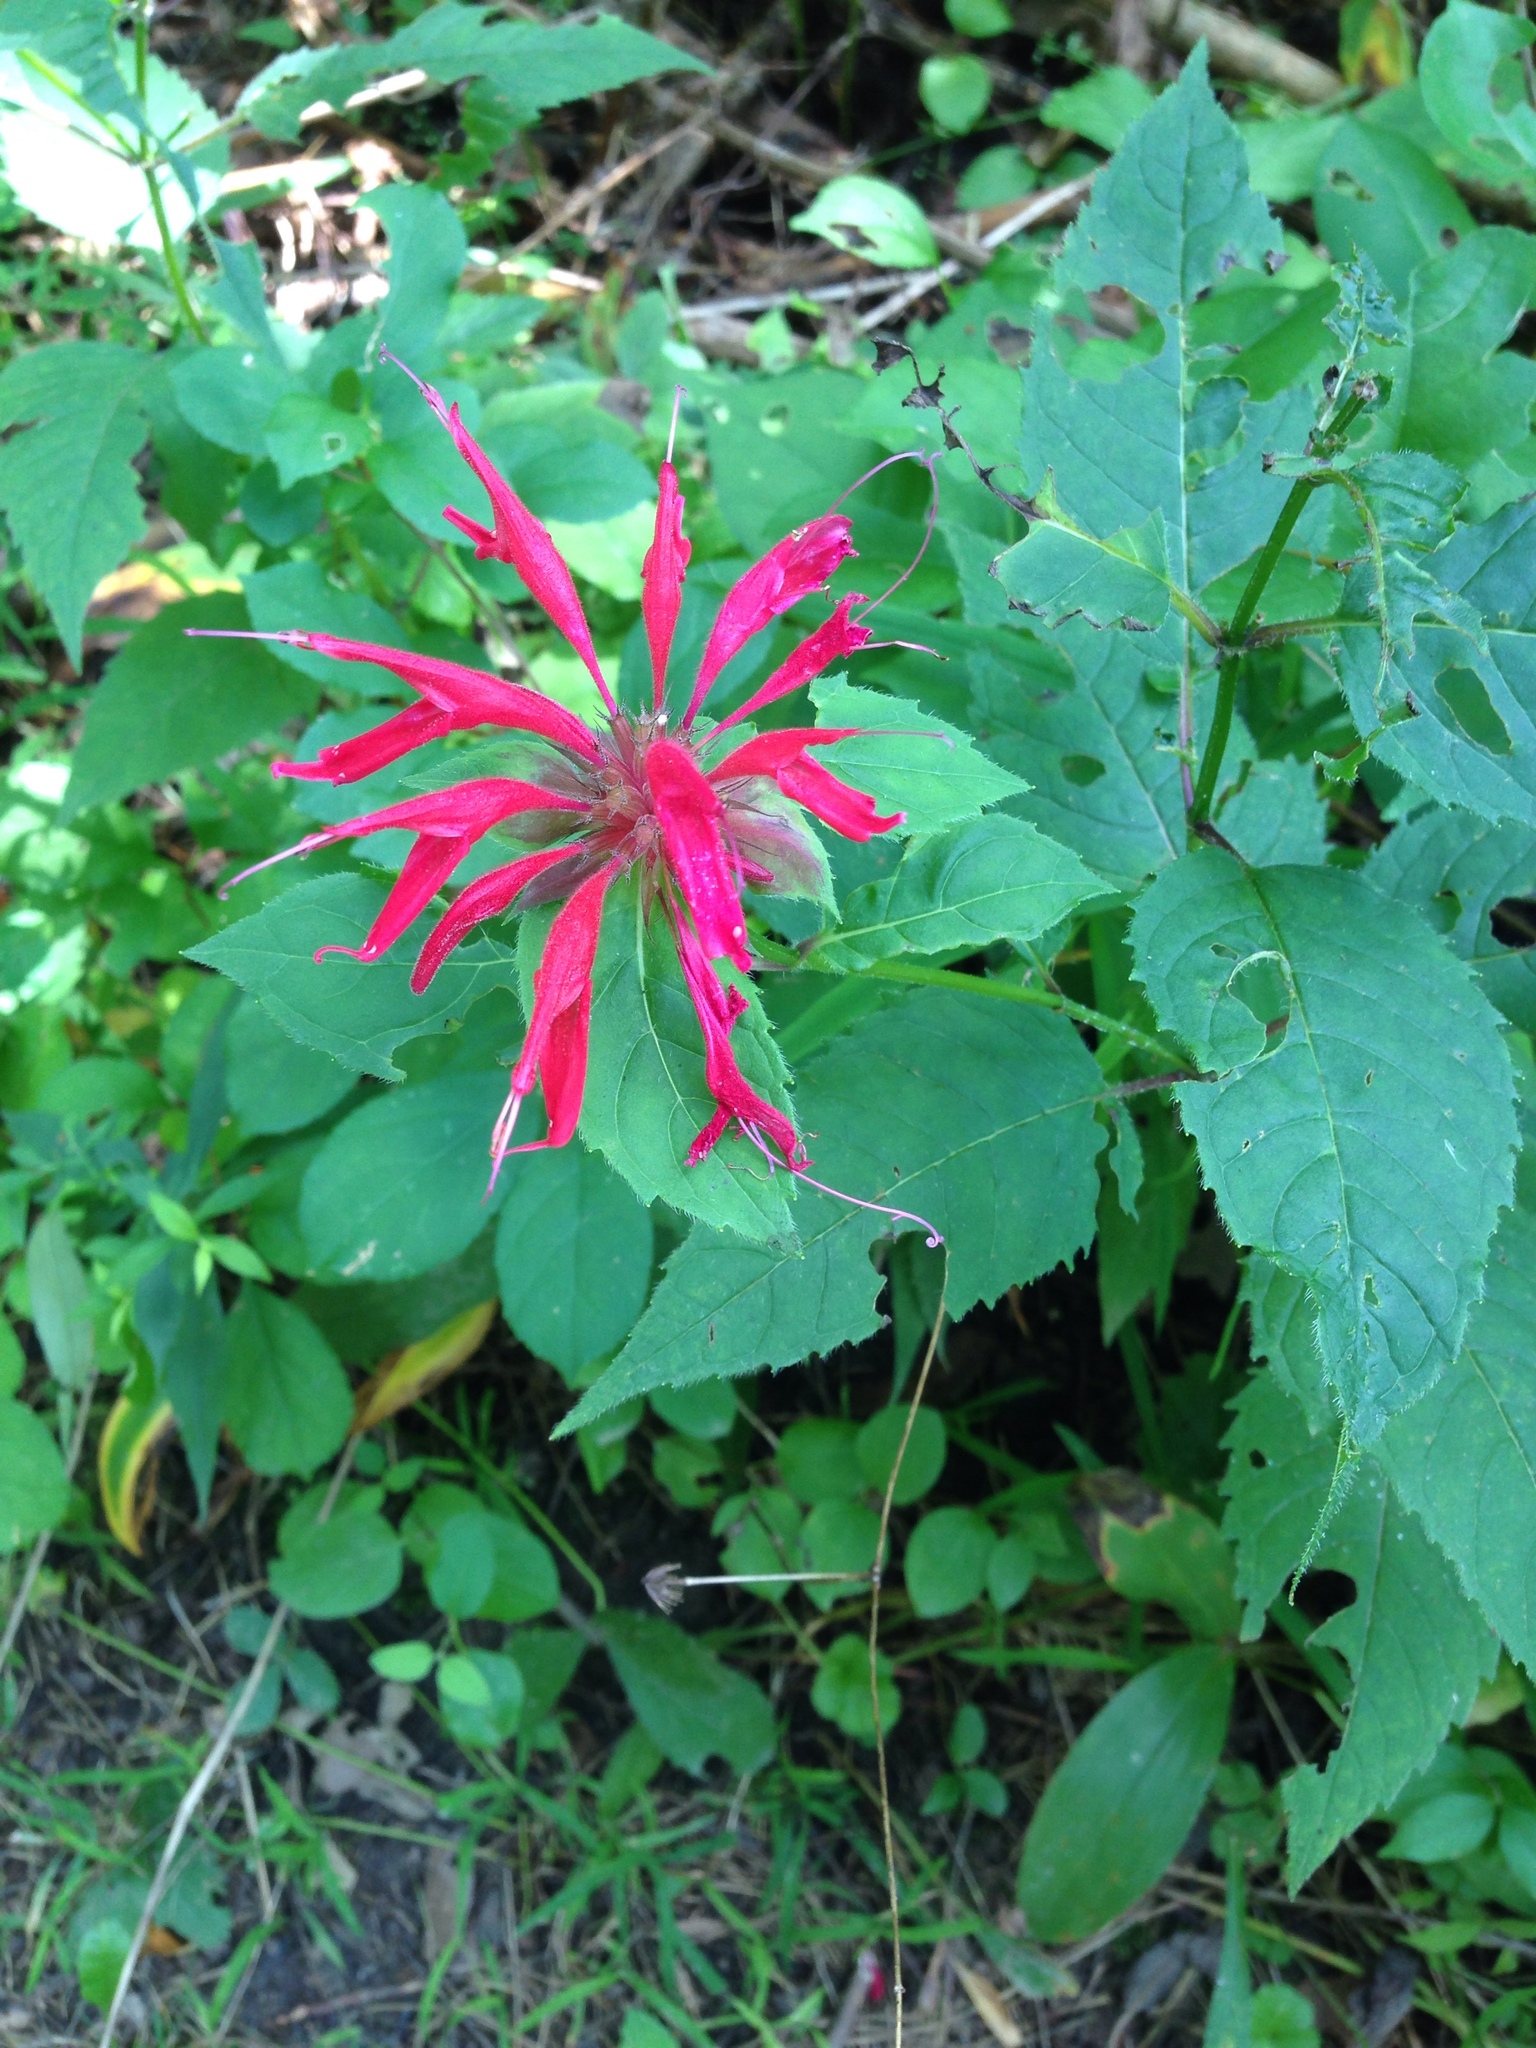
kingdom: Plantae
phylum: Tracheophyta
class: Magnoliopsida
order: Lamiales
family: Lamiaceae
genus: Monarda
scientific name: Monarda didyma
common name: Beebalm
